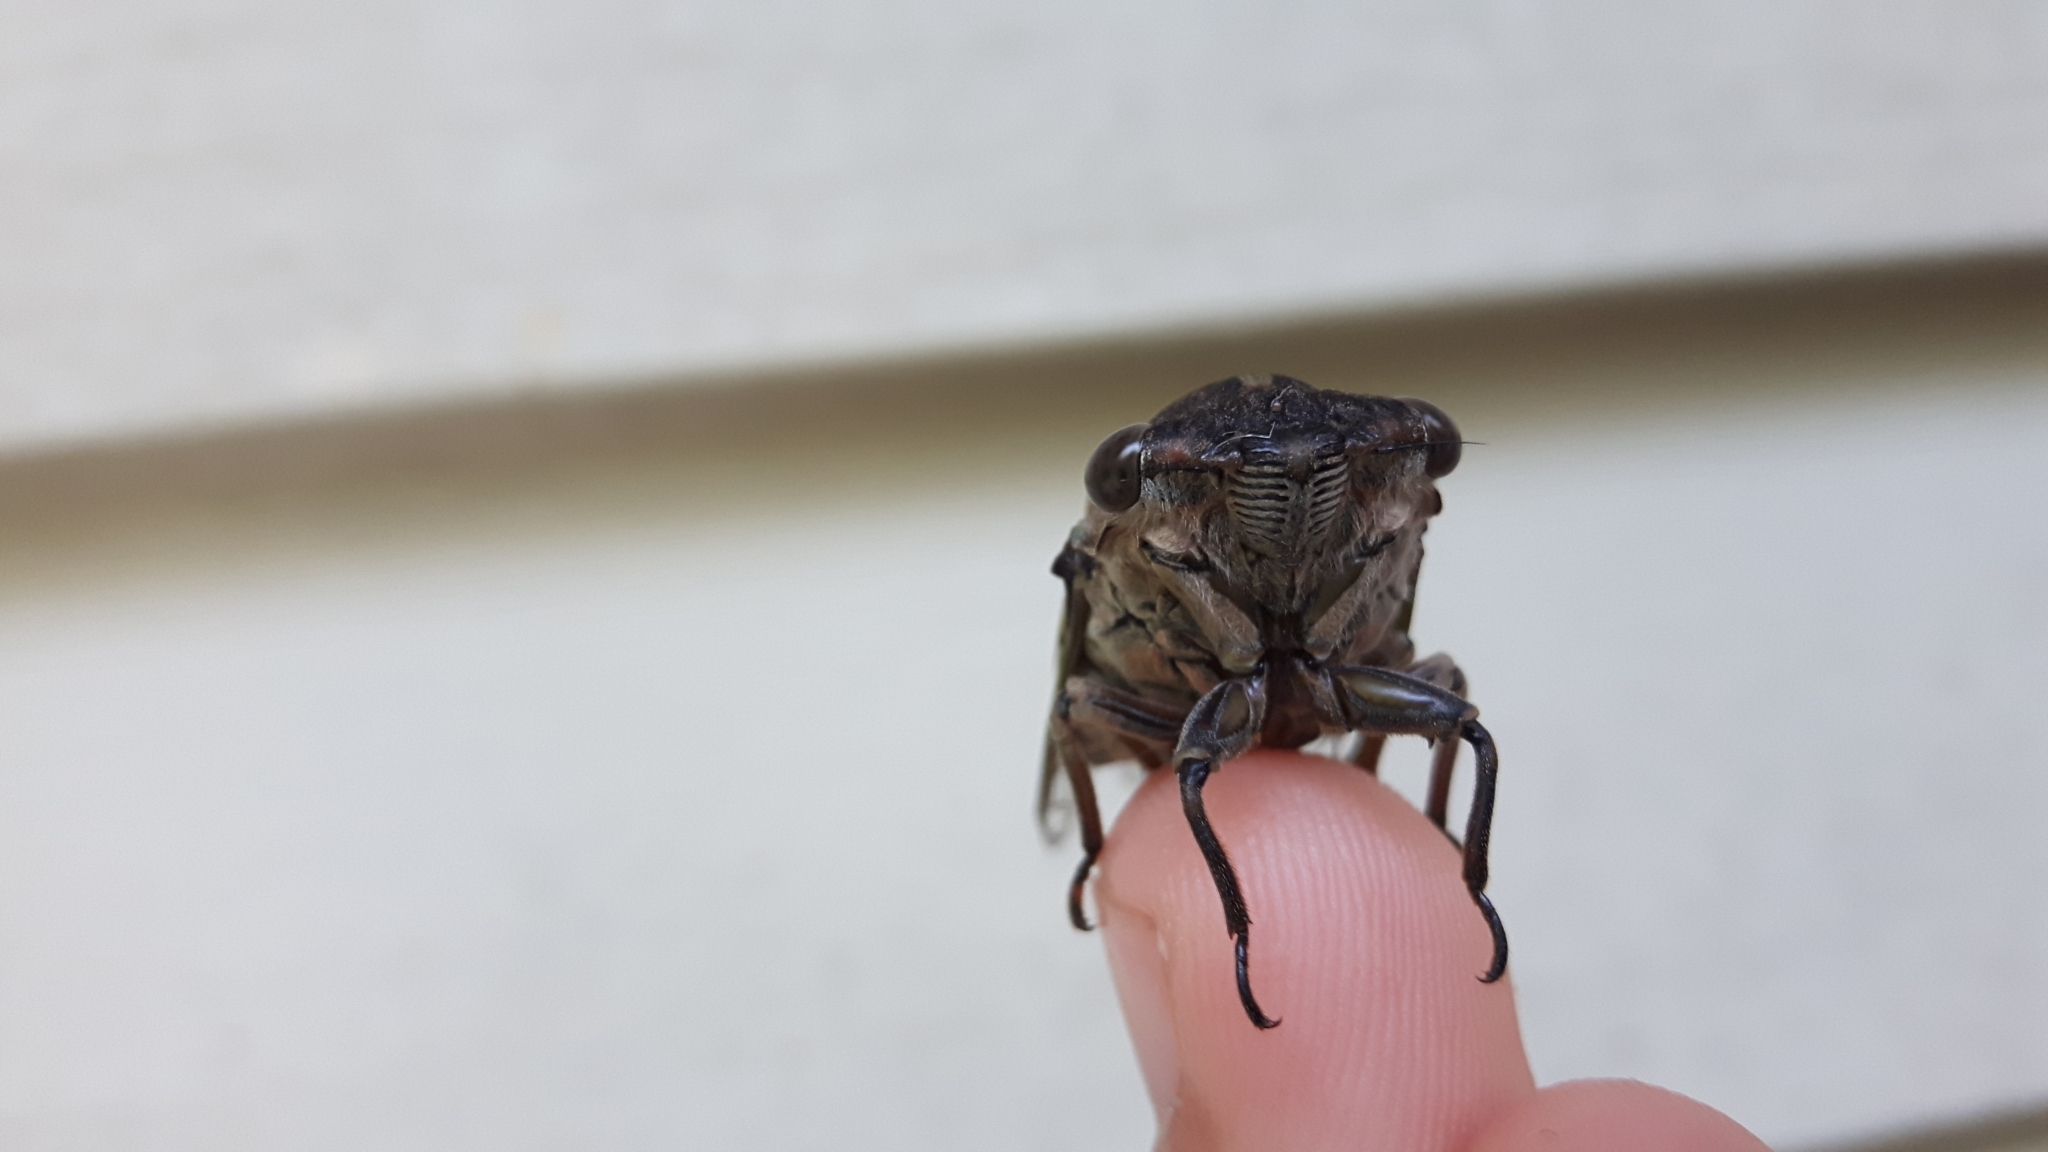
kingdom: Animalia
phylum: Arthropoda
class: Insecta
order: Hemiptera
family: Cicadidae
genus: Neotibicen
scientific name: Neotibicen canicularis
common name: God-day cicada
